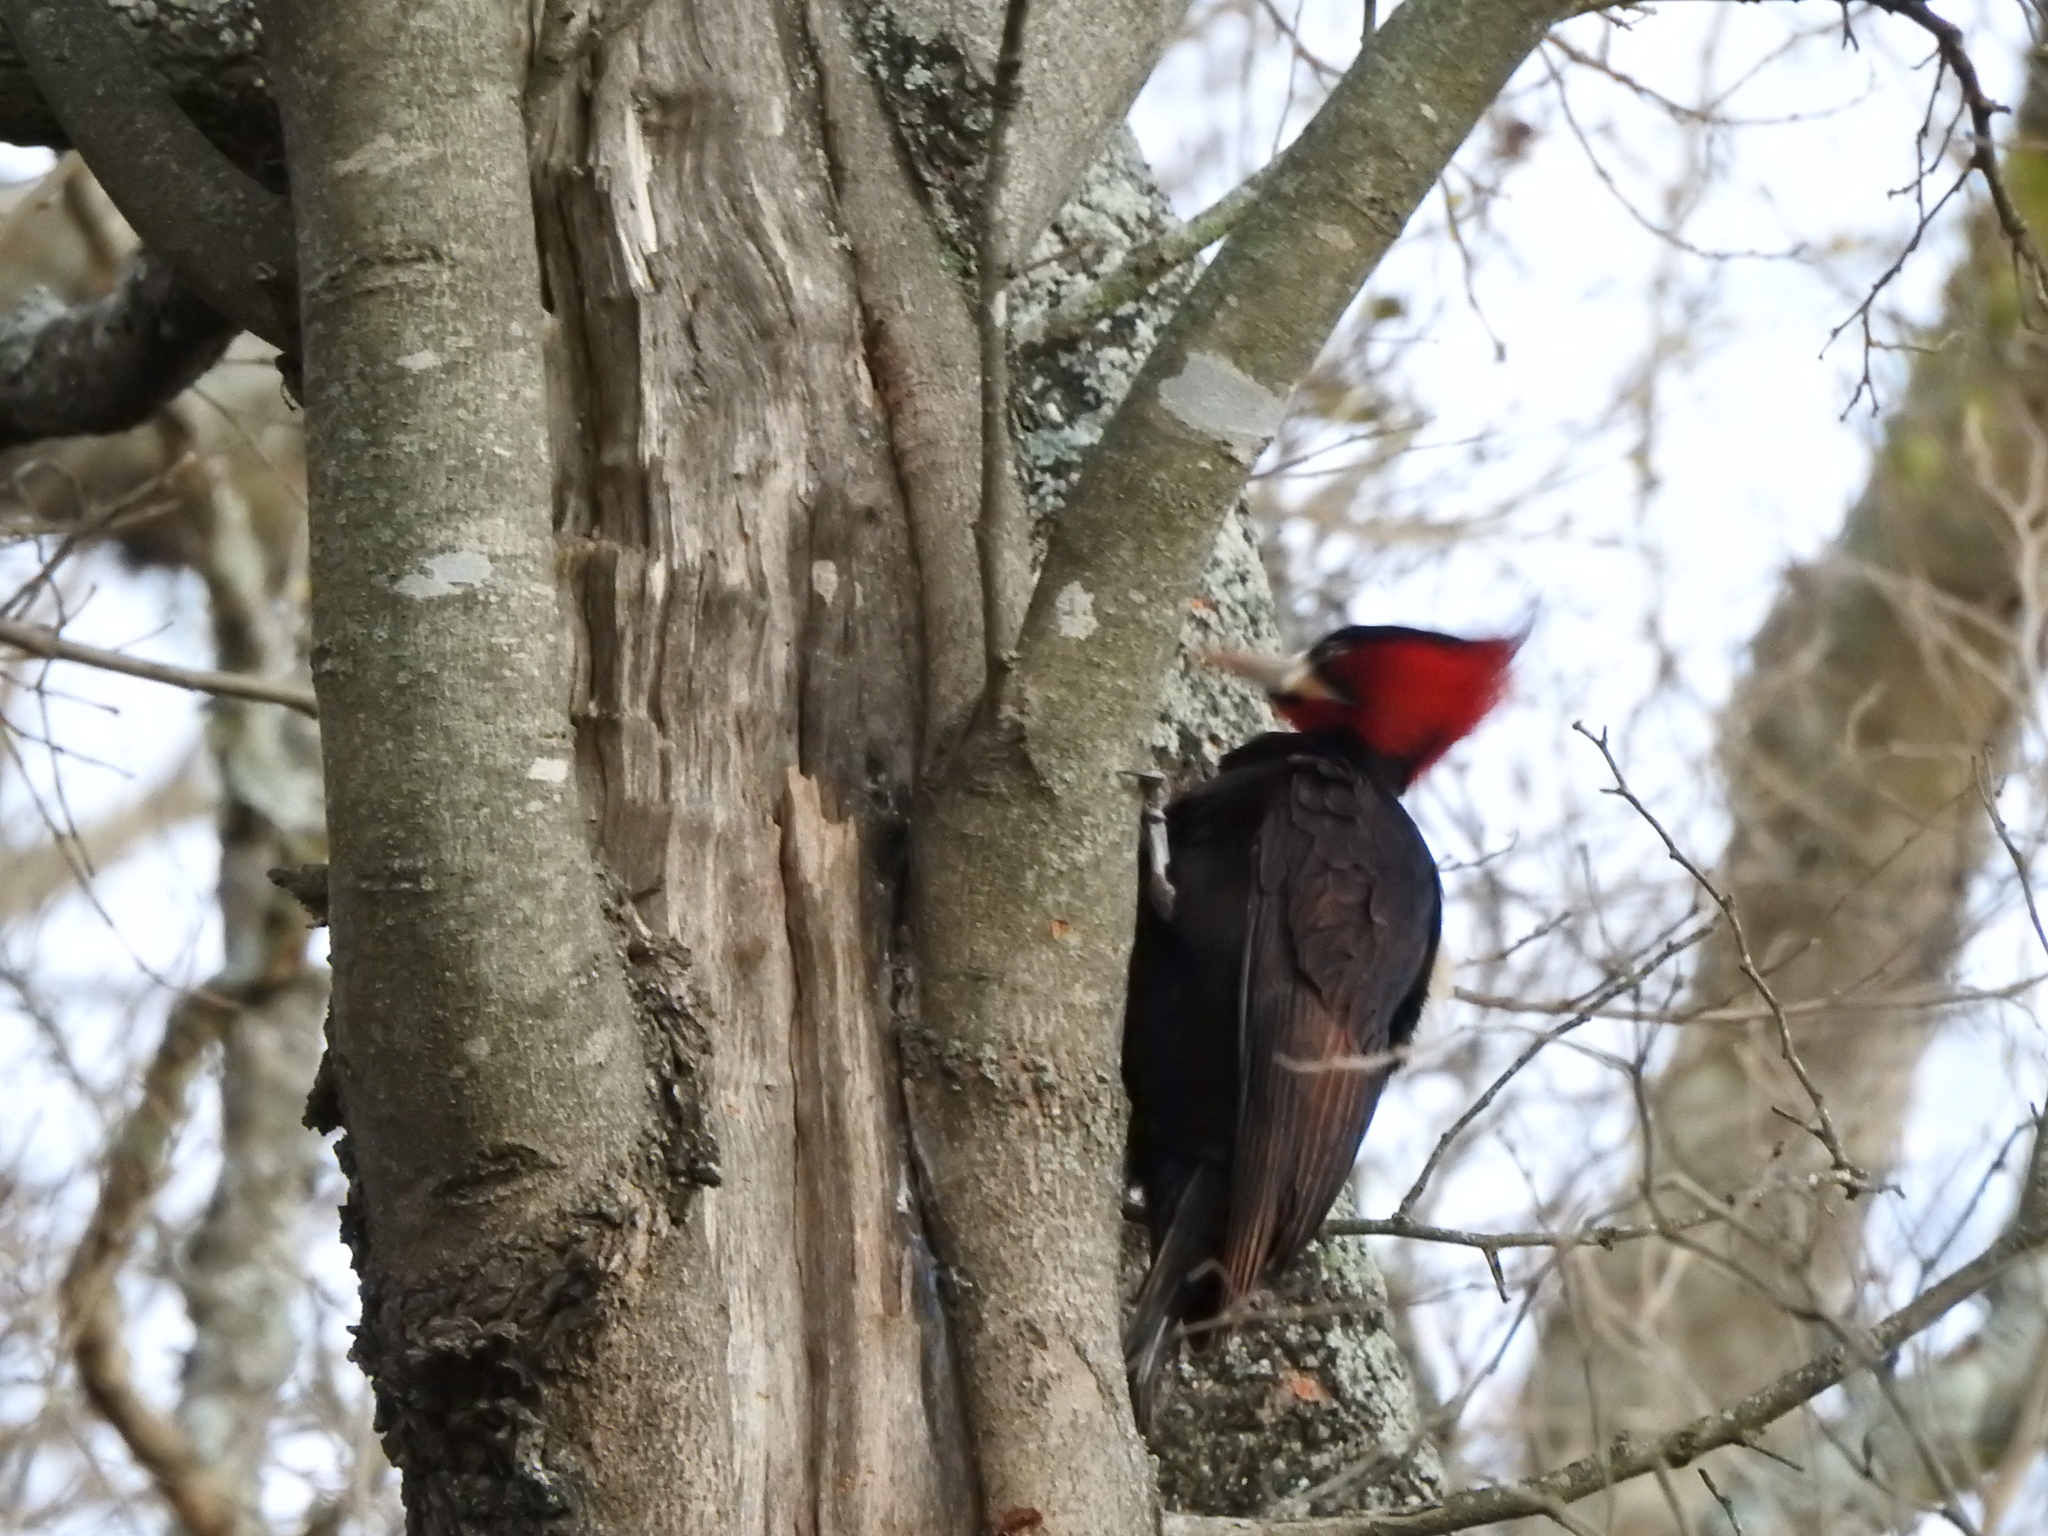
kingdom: Animalia
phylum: Chordata
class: Aves
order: Piciformes
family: Picidae
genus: Campephilus
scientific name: Campephilus leucopogon
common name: Cream-backed woodpecker
